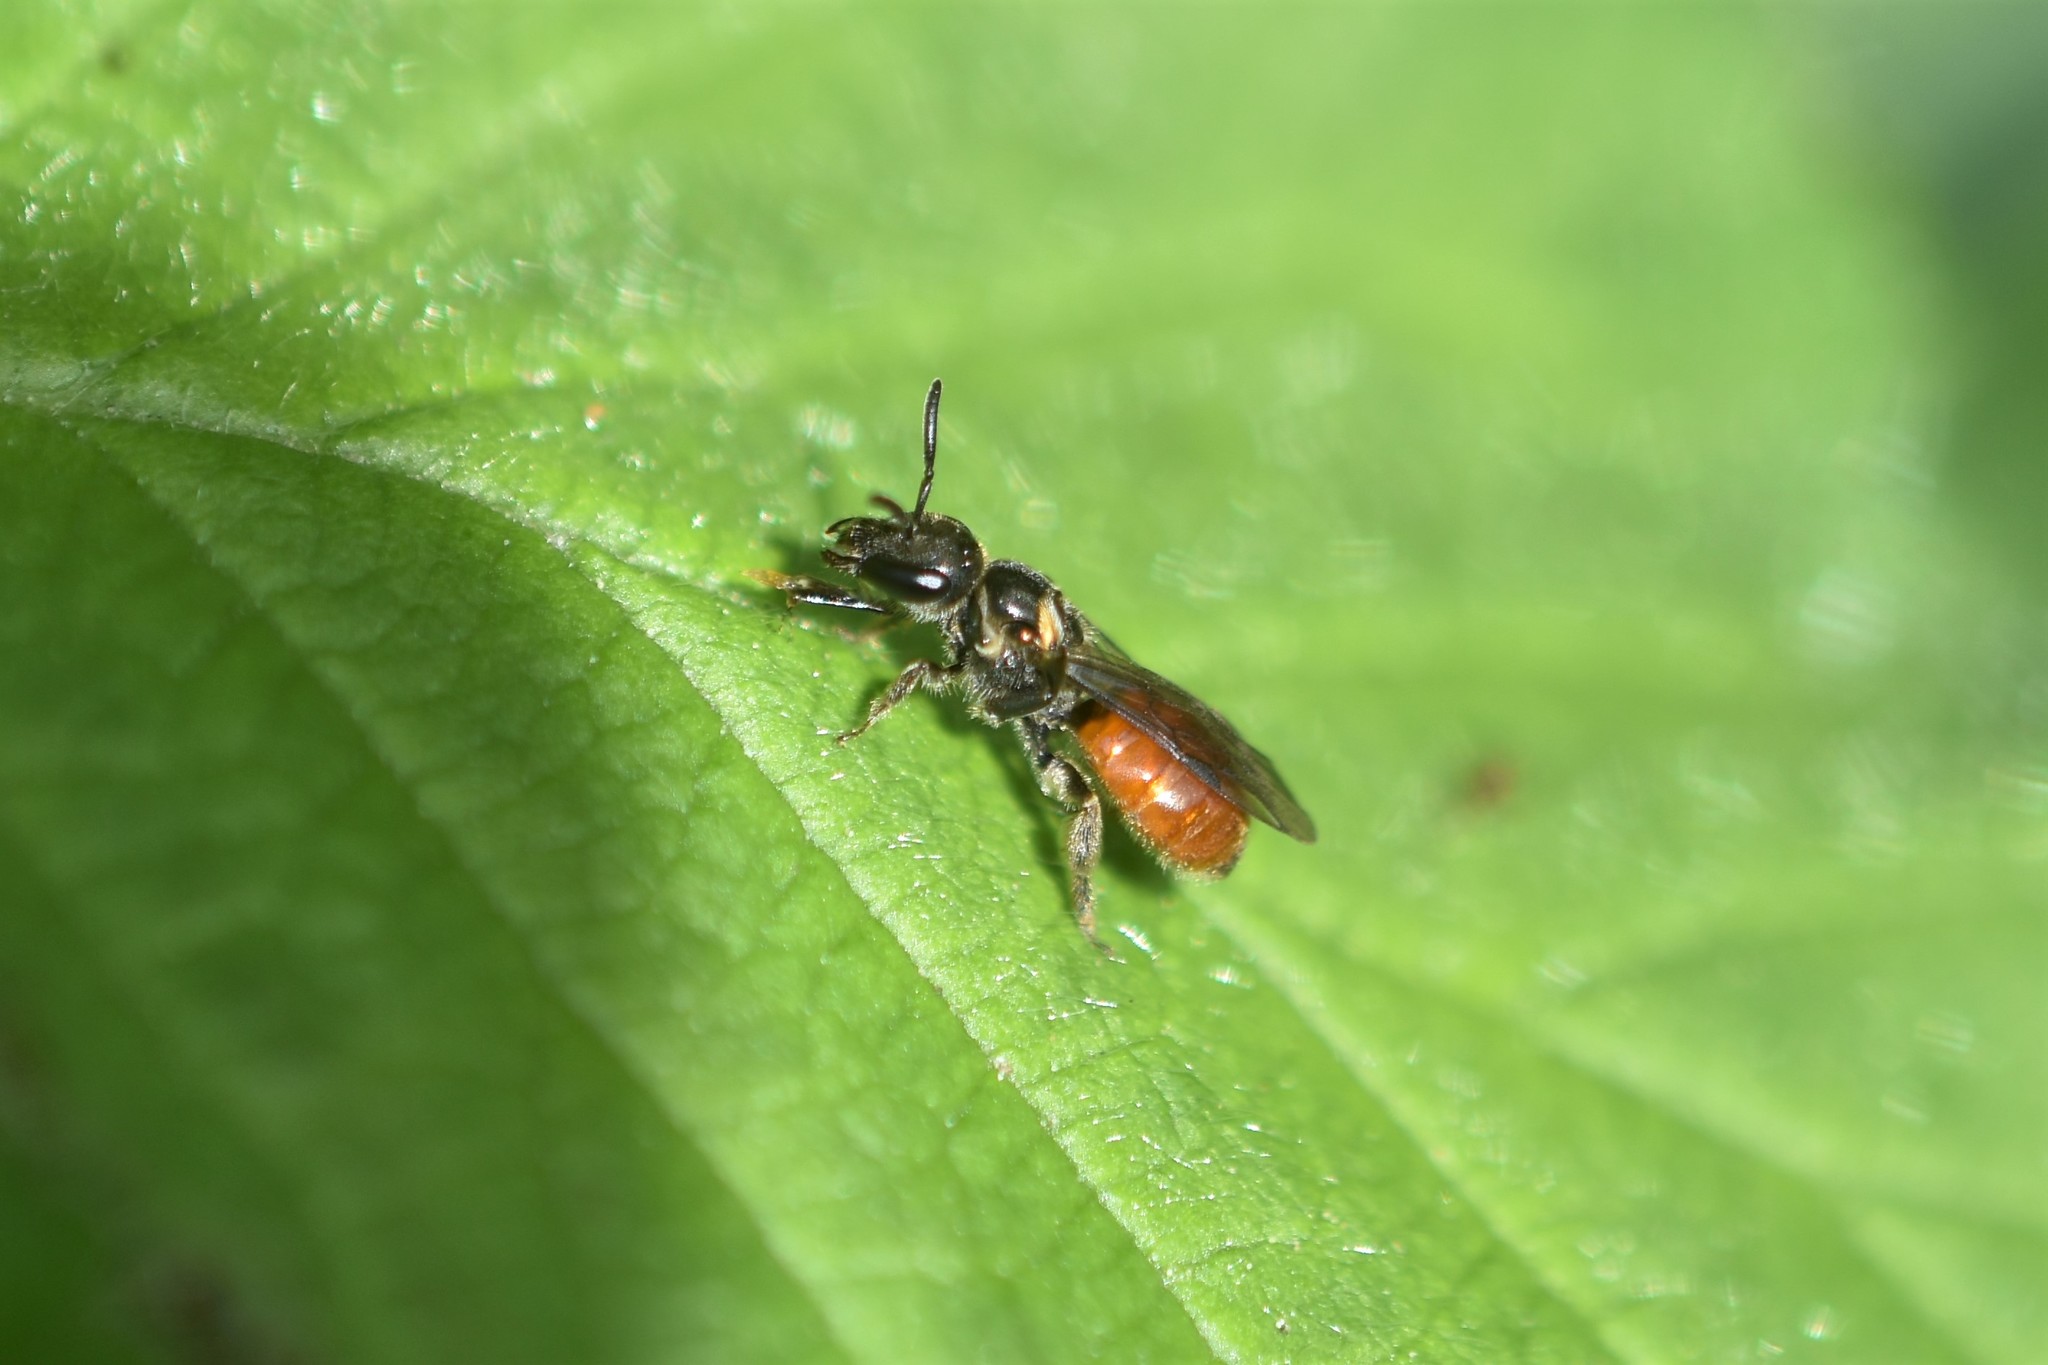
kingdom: Animalia
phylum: Arthropoda
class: Insecta
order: Hymenoptera
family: Halictidae
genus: Lasioglossum
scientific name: Lasioglossum ovaliceps
